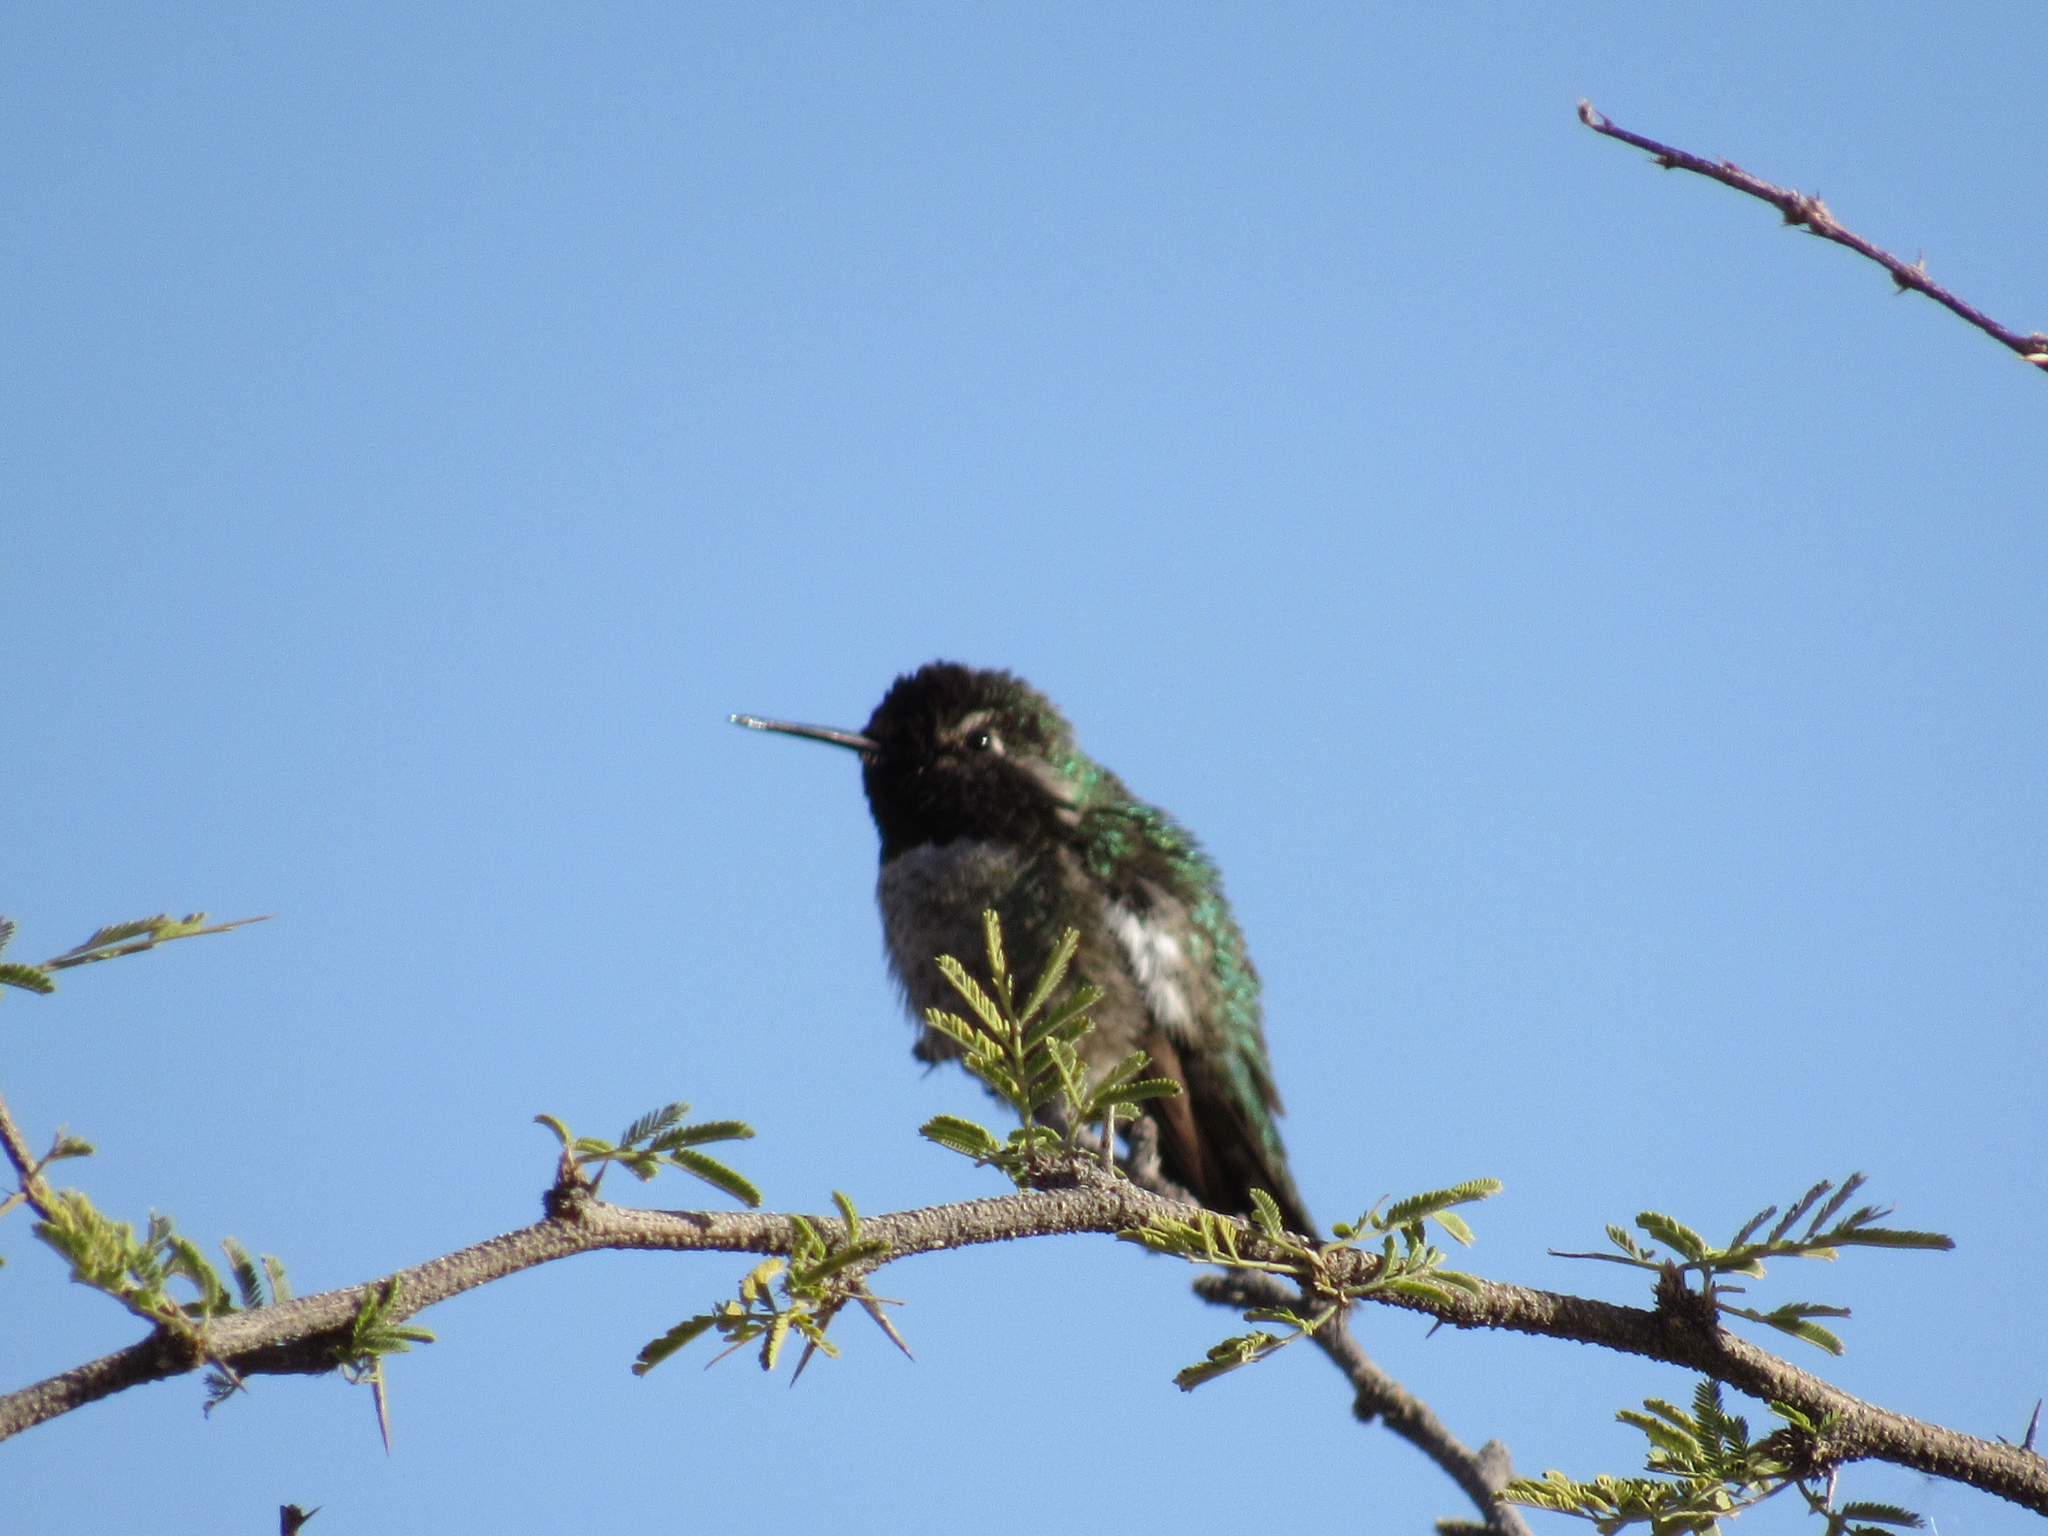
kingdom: Animalia
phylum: Chordata
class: Aves
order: Apodiformes
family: Trochilidae
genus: Calypte
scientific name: Calypte anna
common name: Anna's hummingbird
